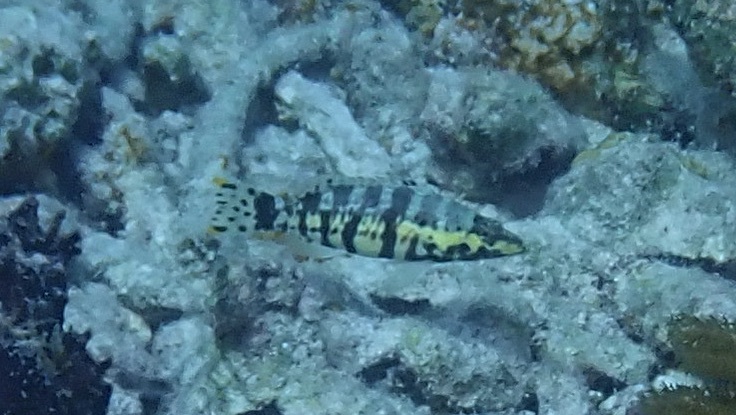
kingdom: Animalia
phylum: Chordata
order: Perciformes
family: Serranidae
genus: Serranus
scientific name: Serranus tigrinus
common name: Harlequin bass
